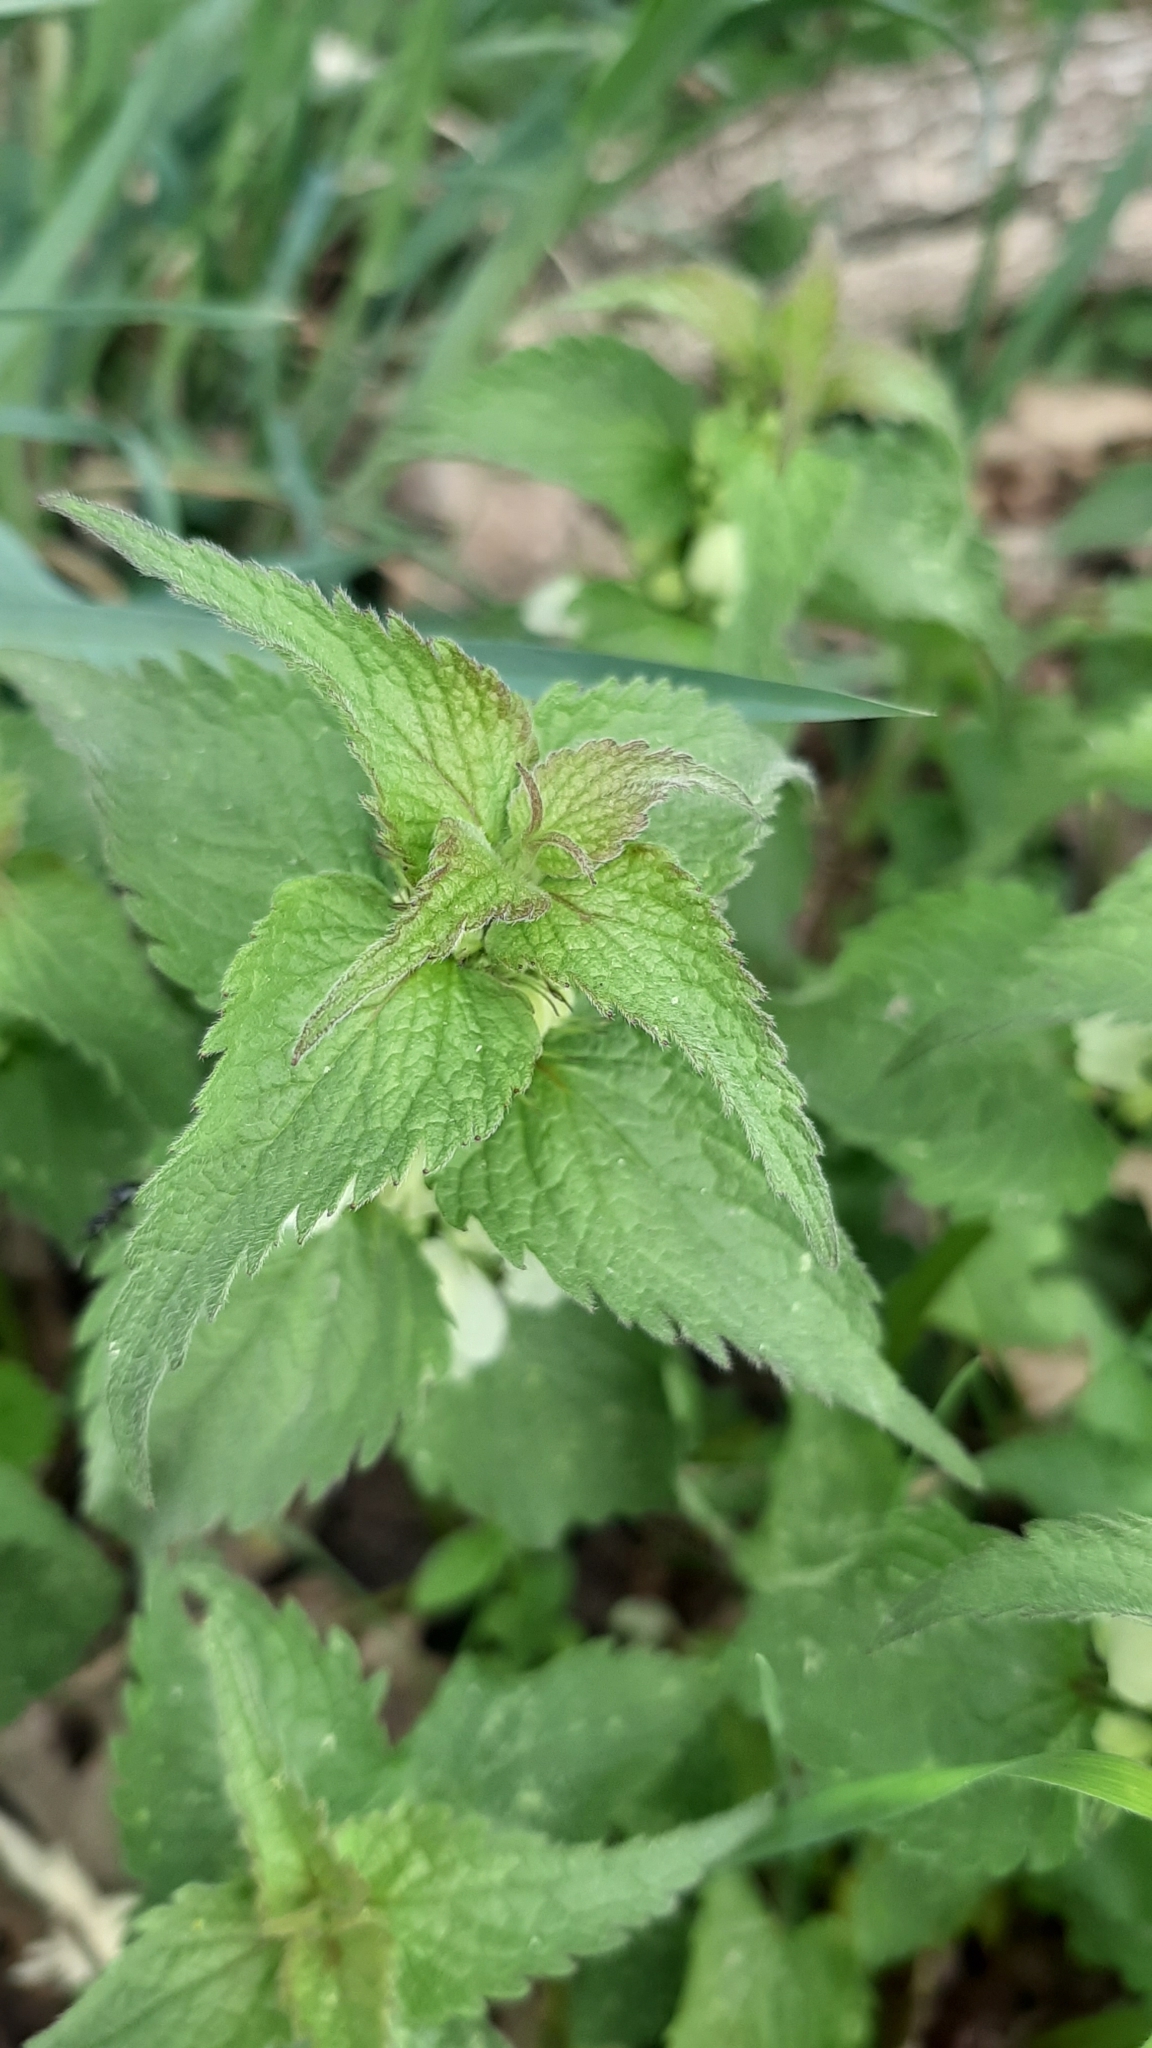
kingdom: Plantae
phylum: Tracheophyta
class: Magnoliopsida
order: Lamiales
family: Lamiaceae
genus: Lamium
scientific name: Lamium album
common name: White dead-nettle
